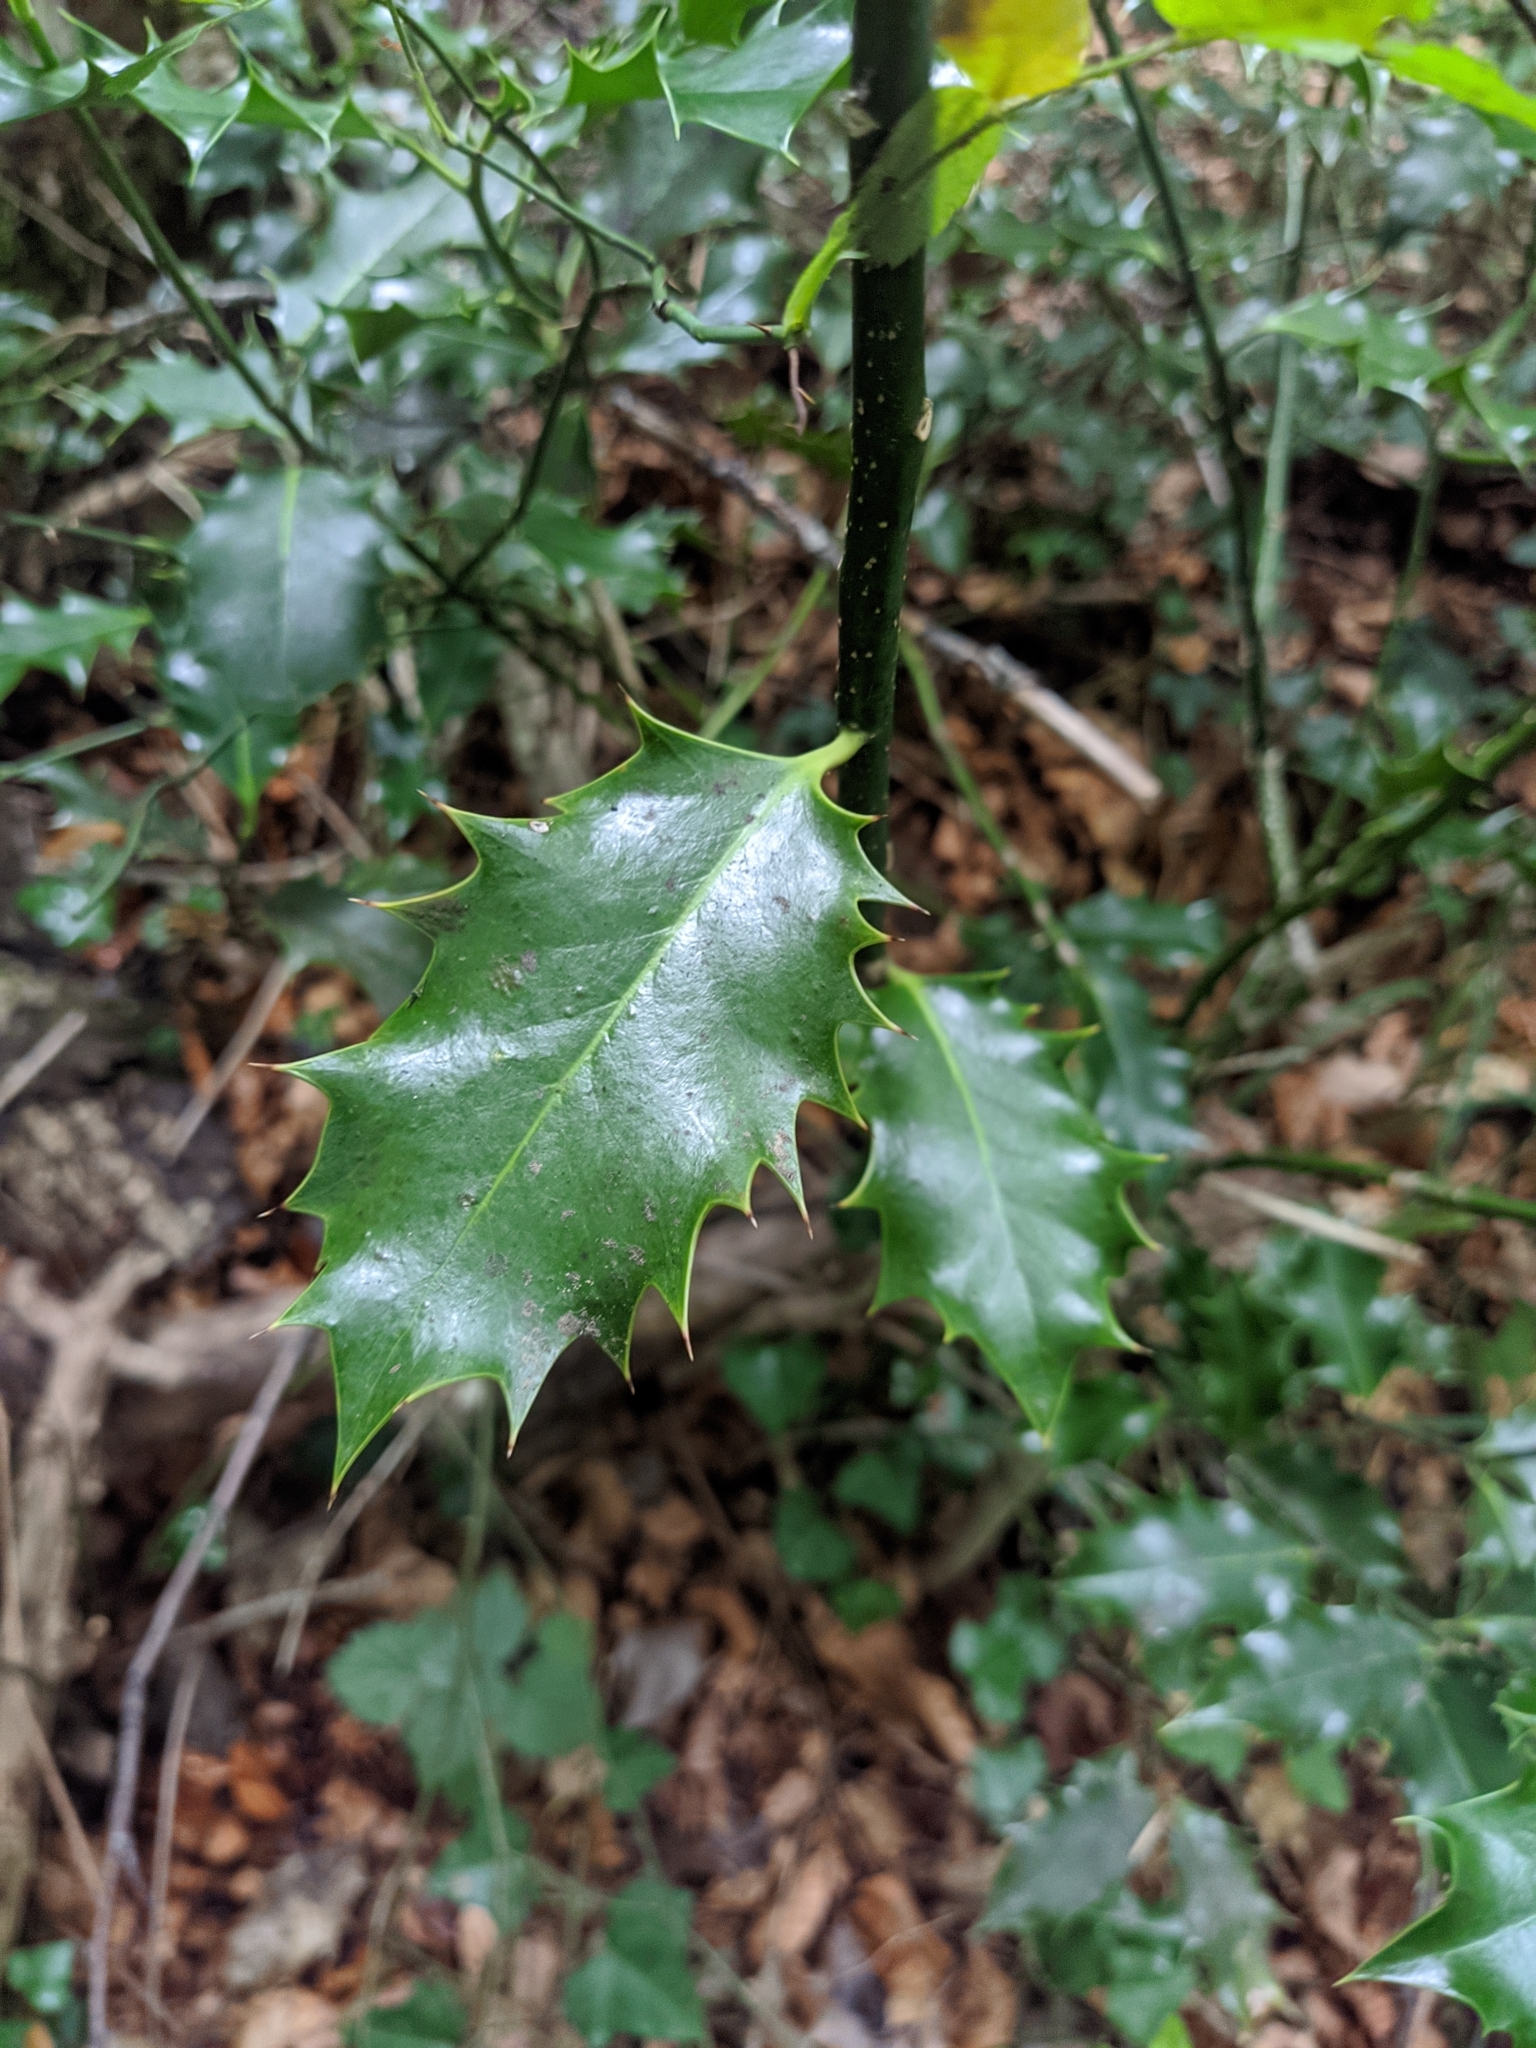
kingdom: Plantae
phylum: Tracheophyta
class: Magnoliopsida
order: Aquifoliales
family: Aquifoliaceae
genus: Ilex
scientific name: Ilex aquifolium
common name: English holly
